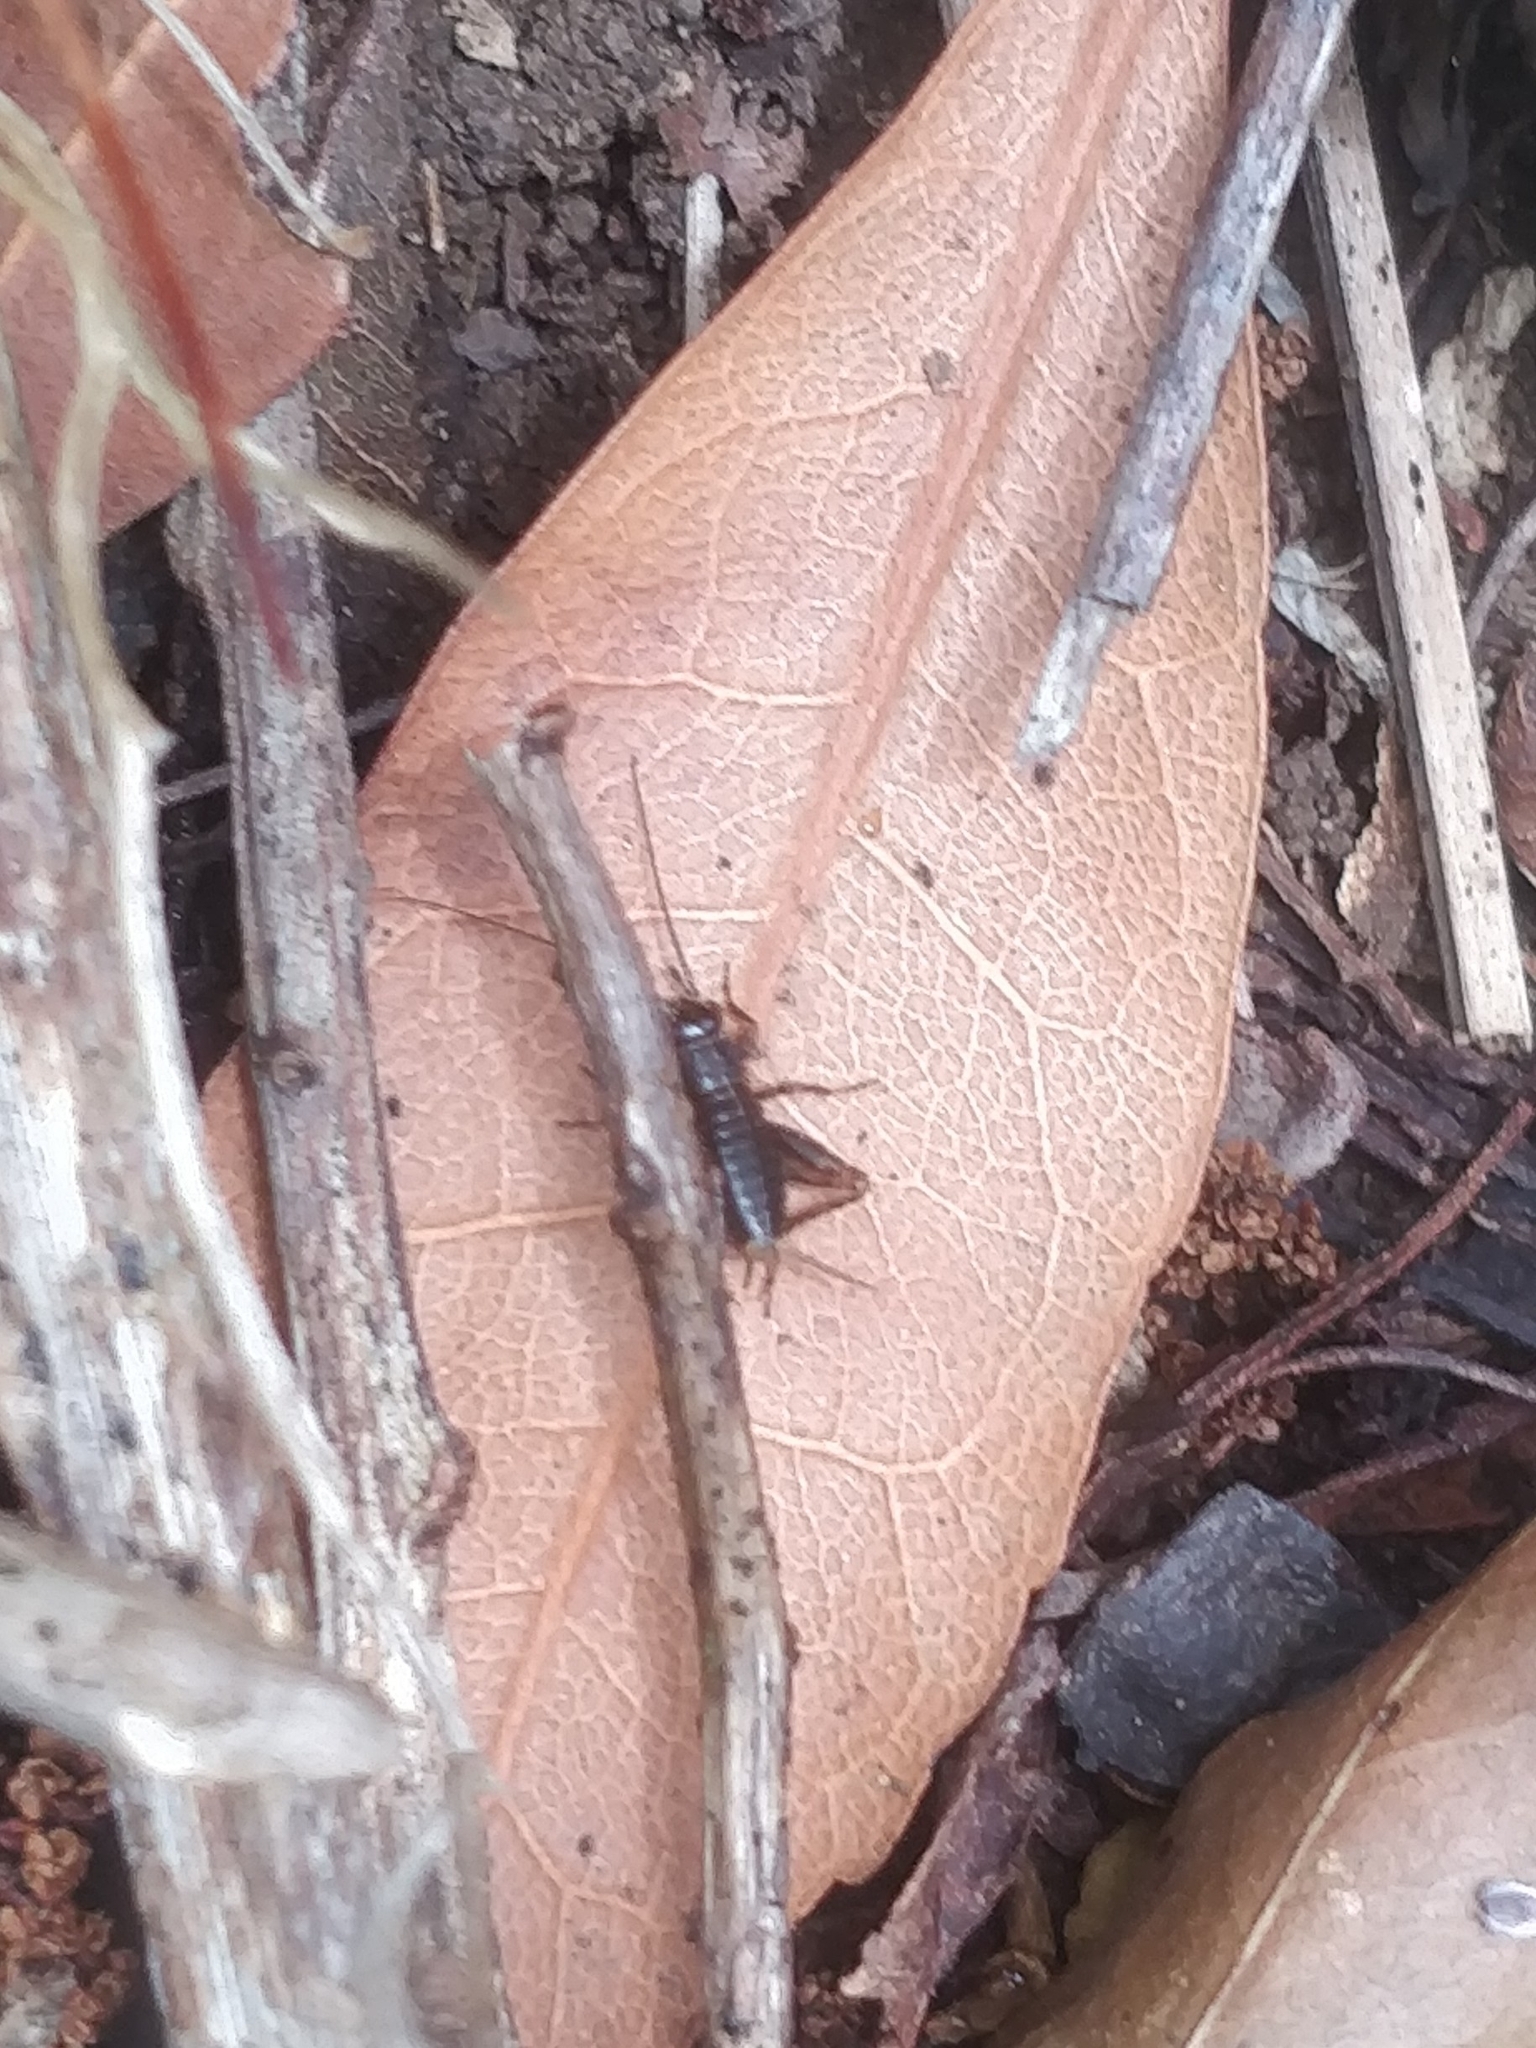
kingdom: Animalia
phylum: Arthropoda
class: Insecta
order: Orthoptera
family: Trigonidiidae
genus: Nemobius
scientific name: Nemobius sylvestris
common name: Wood-cricket
